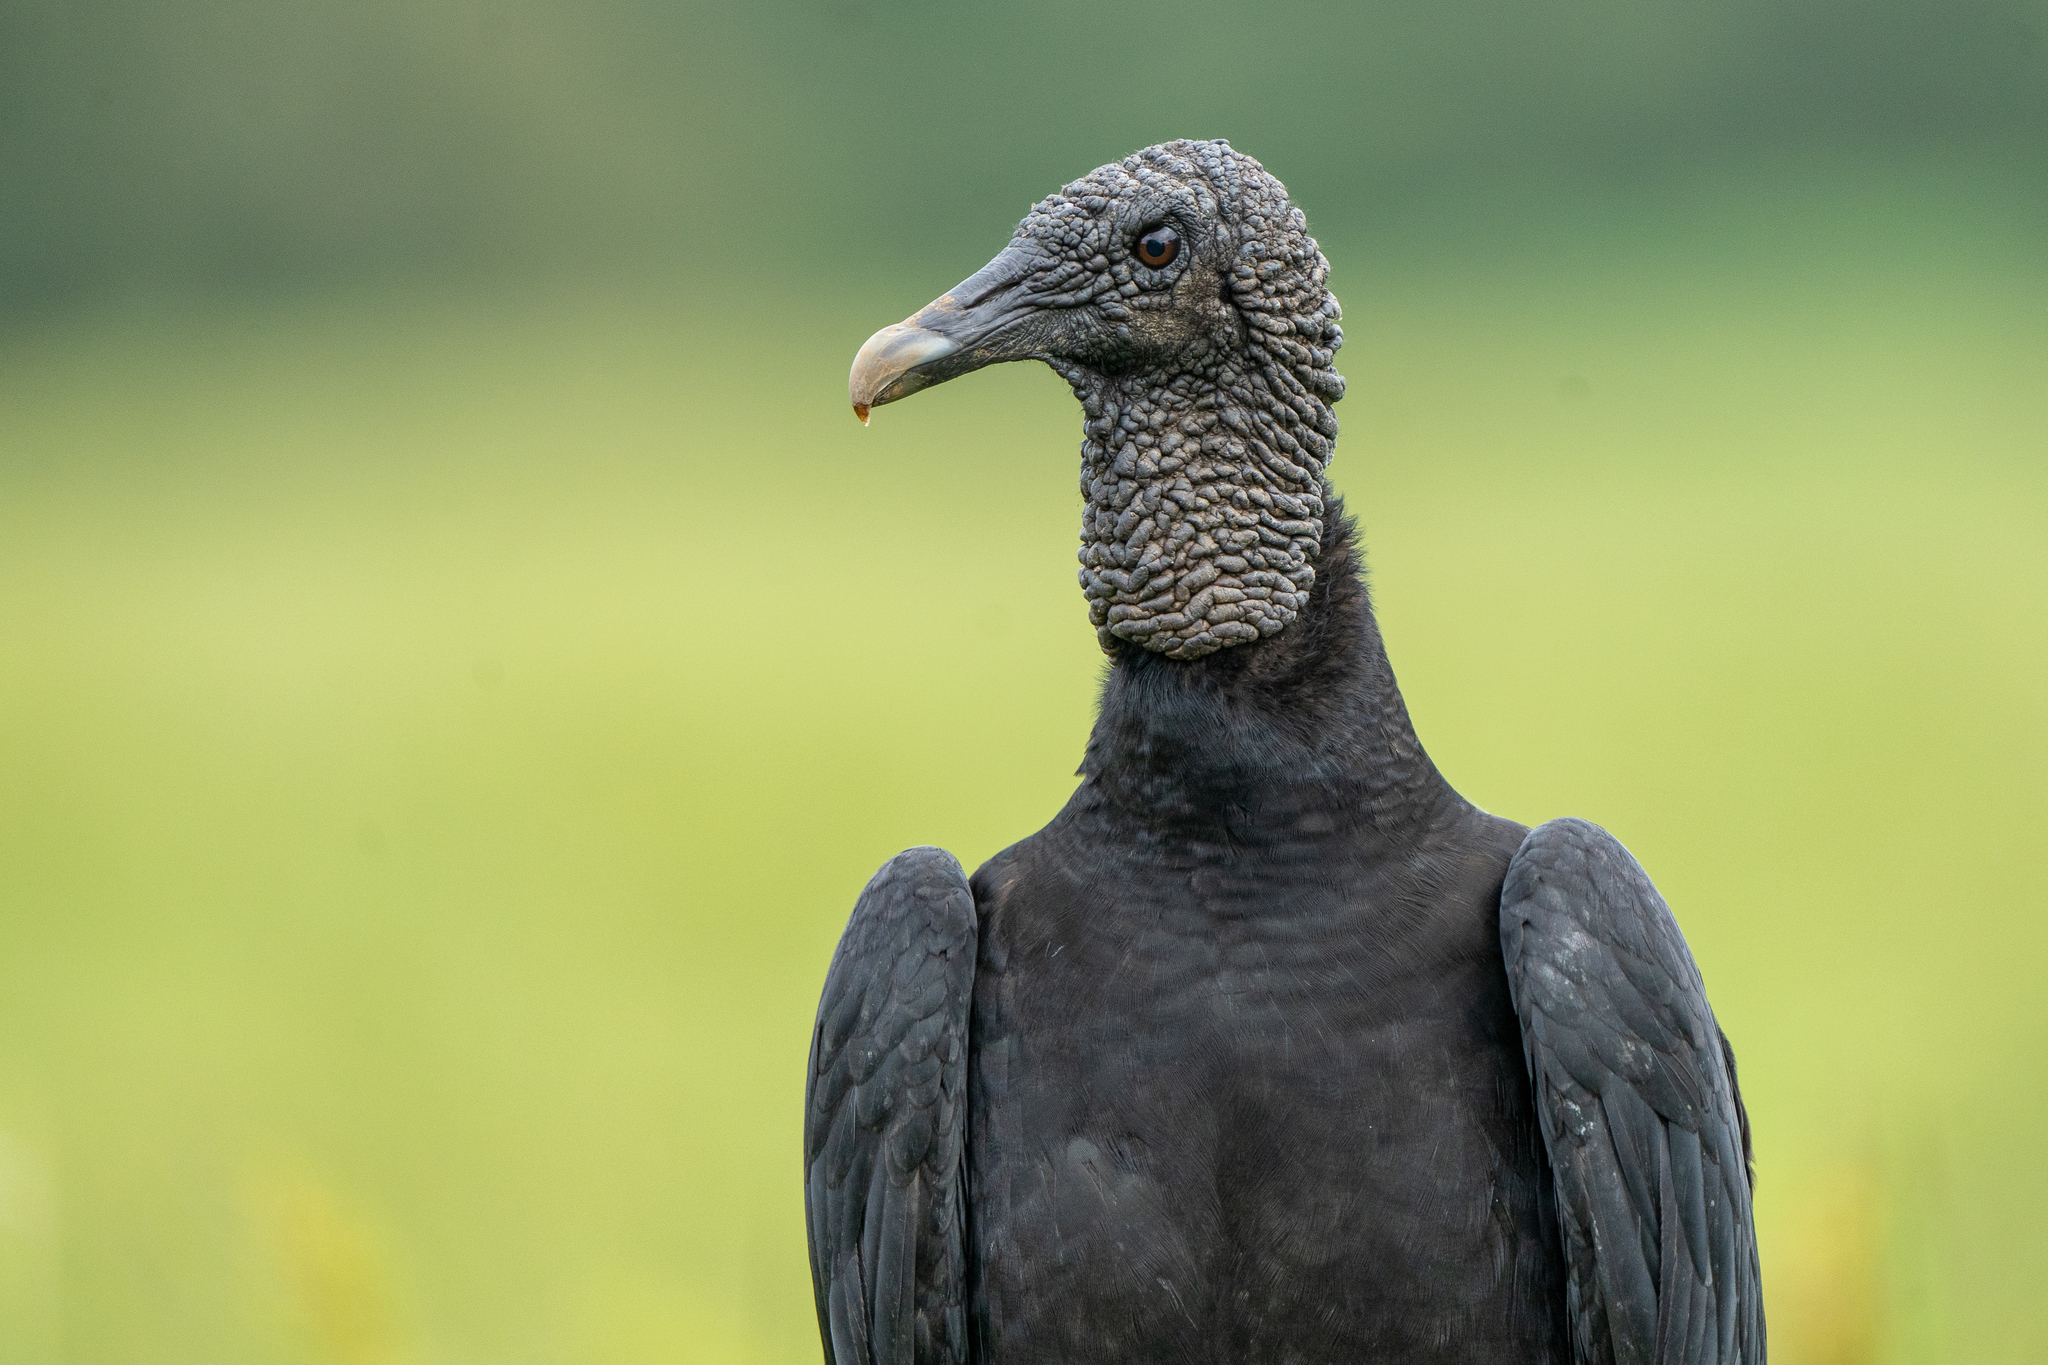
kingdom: Animalia
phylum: Chordata
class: Aves
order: Accipitriformes
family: Cathartidae
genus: Coragyps
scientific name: Coragyps atratus
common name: Black vulture
